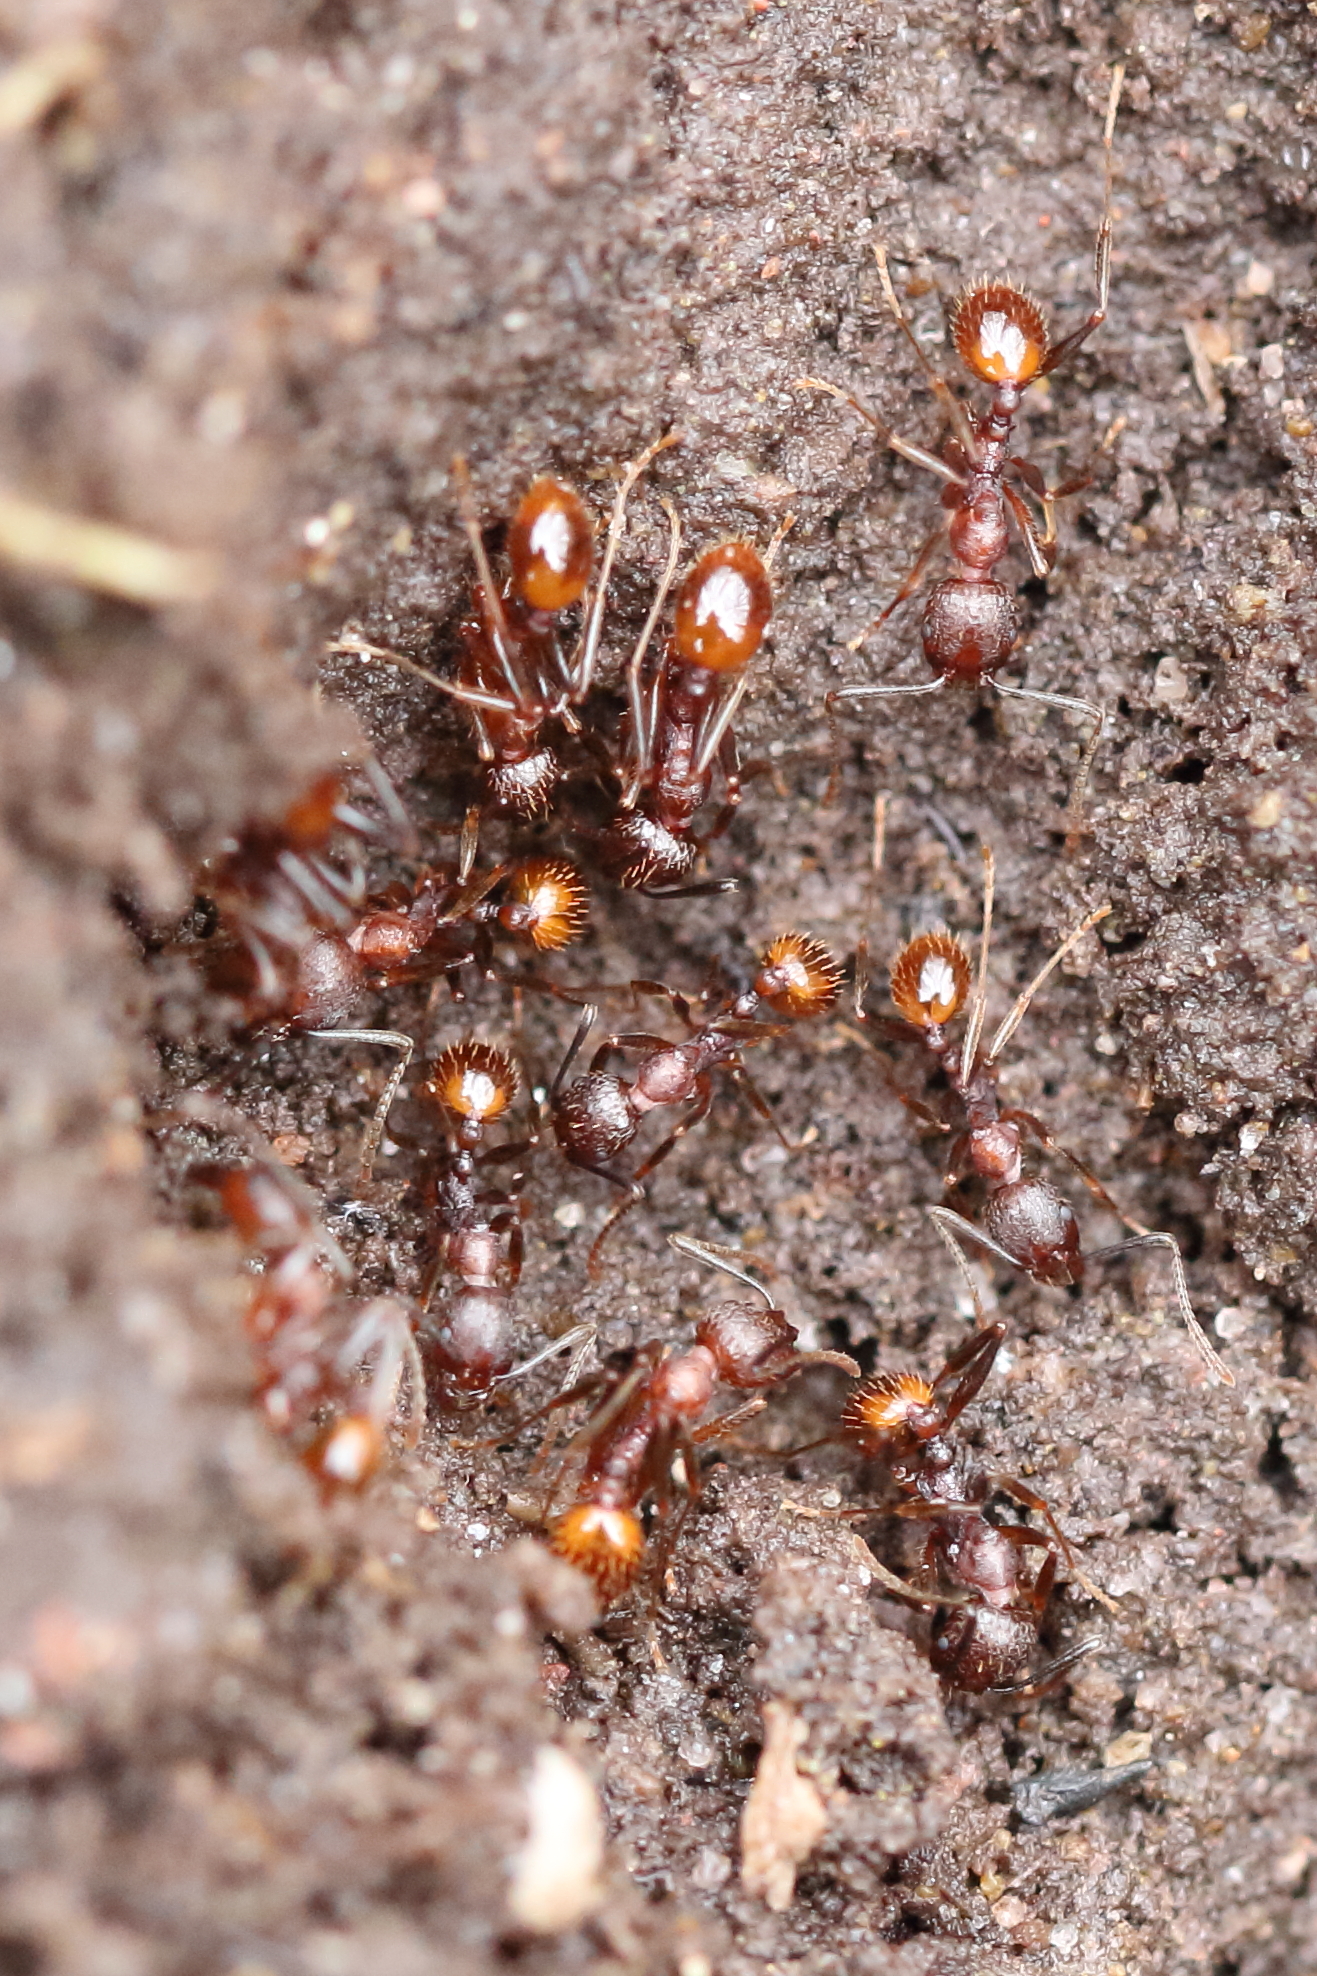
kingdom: Animalia
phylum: Arthropoda
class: Insecta
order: Hymenoptera
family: Formicidae
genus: Aphaenogaster
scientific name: Aphaenogaster fulva
